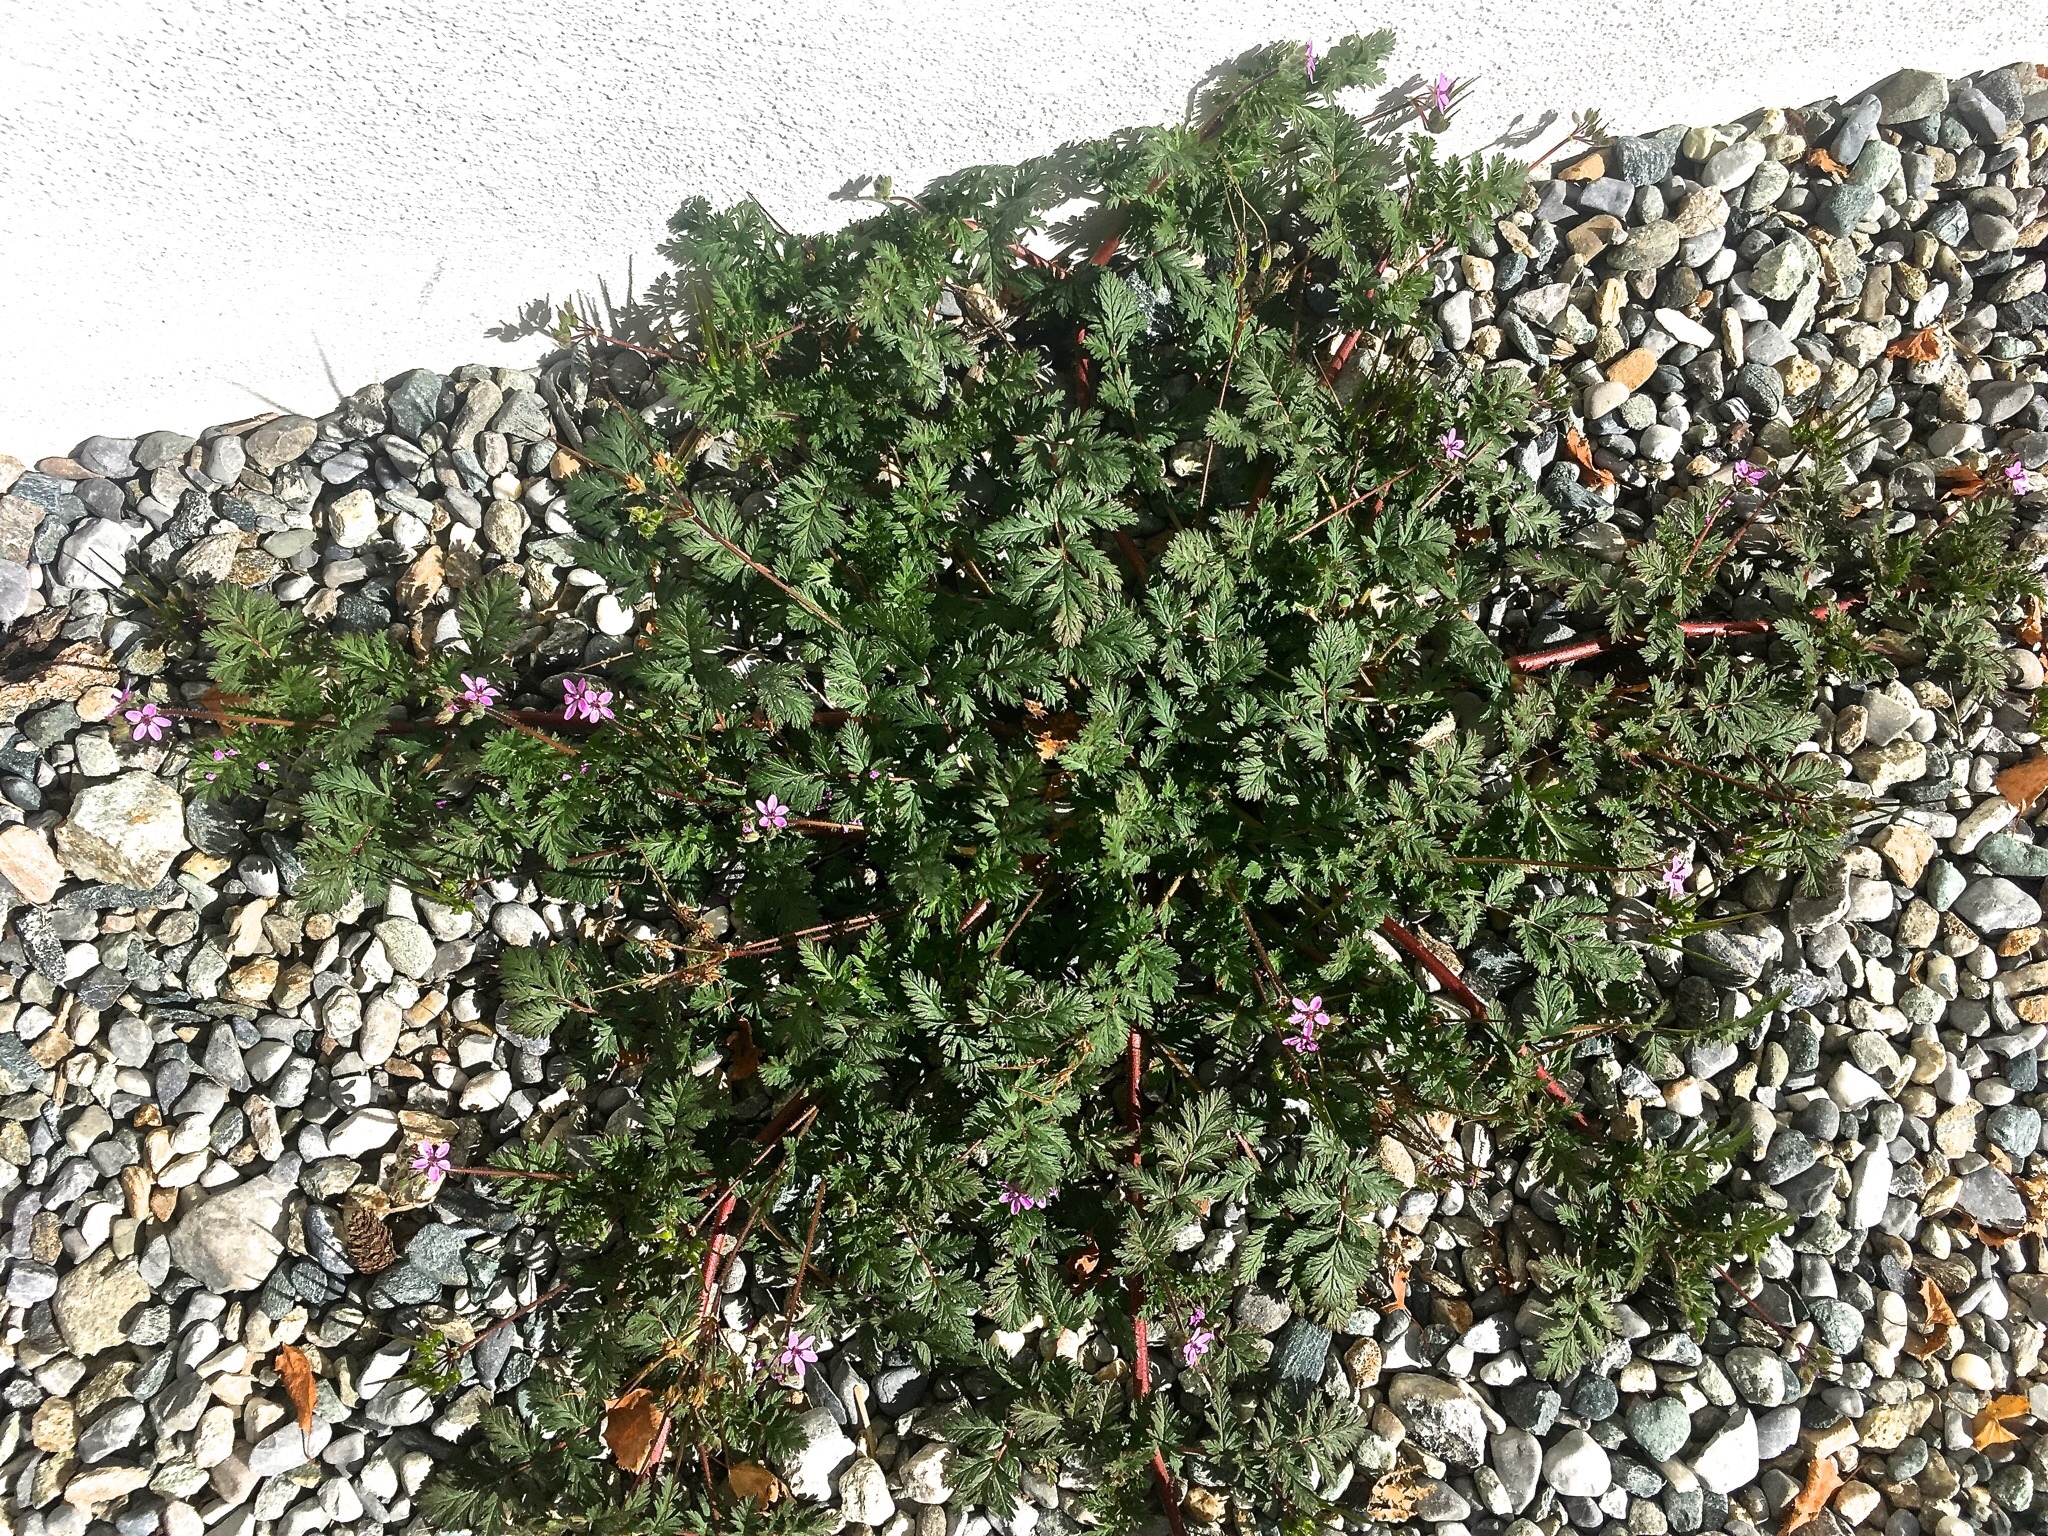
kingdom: Plantae
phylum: Tracheophyta
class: Magnoliopsida
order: Geraniales
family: Geraniaceae
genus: Erodium
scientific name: Erodium cicutarium
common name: Common stork's-bill
